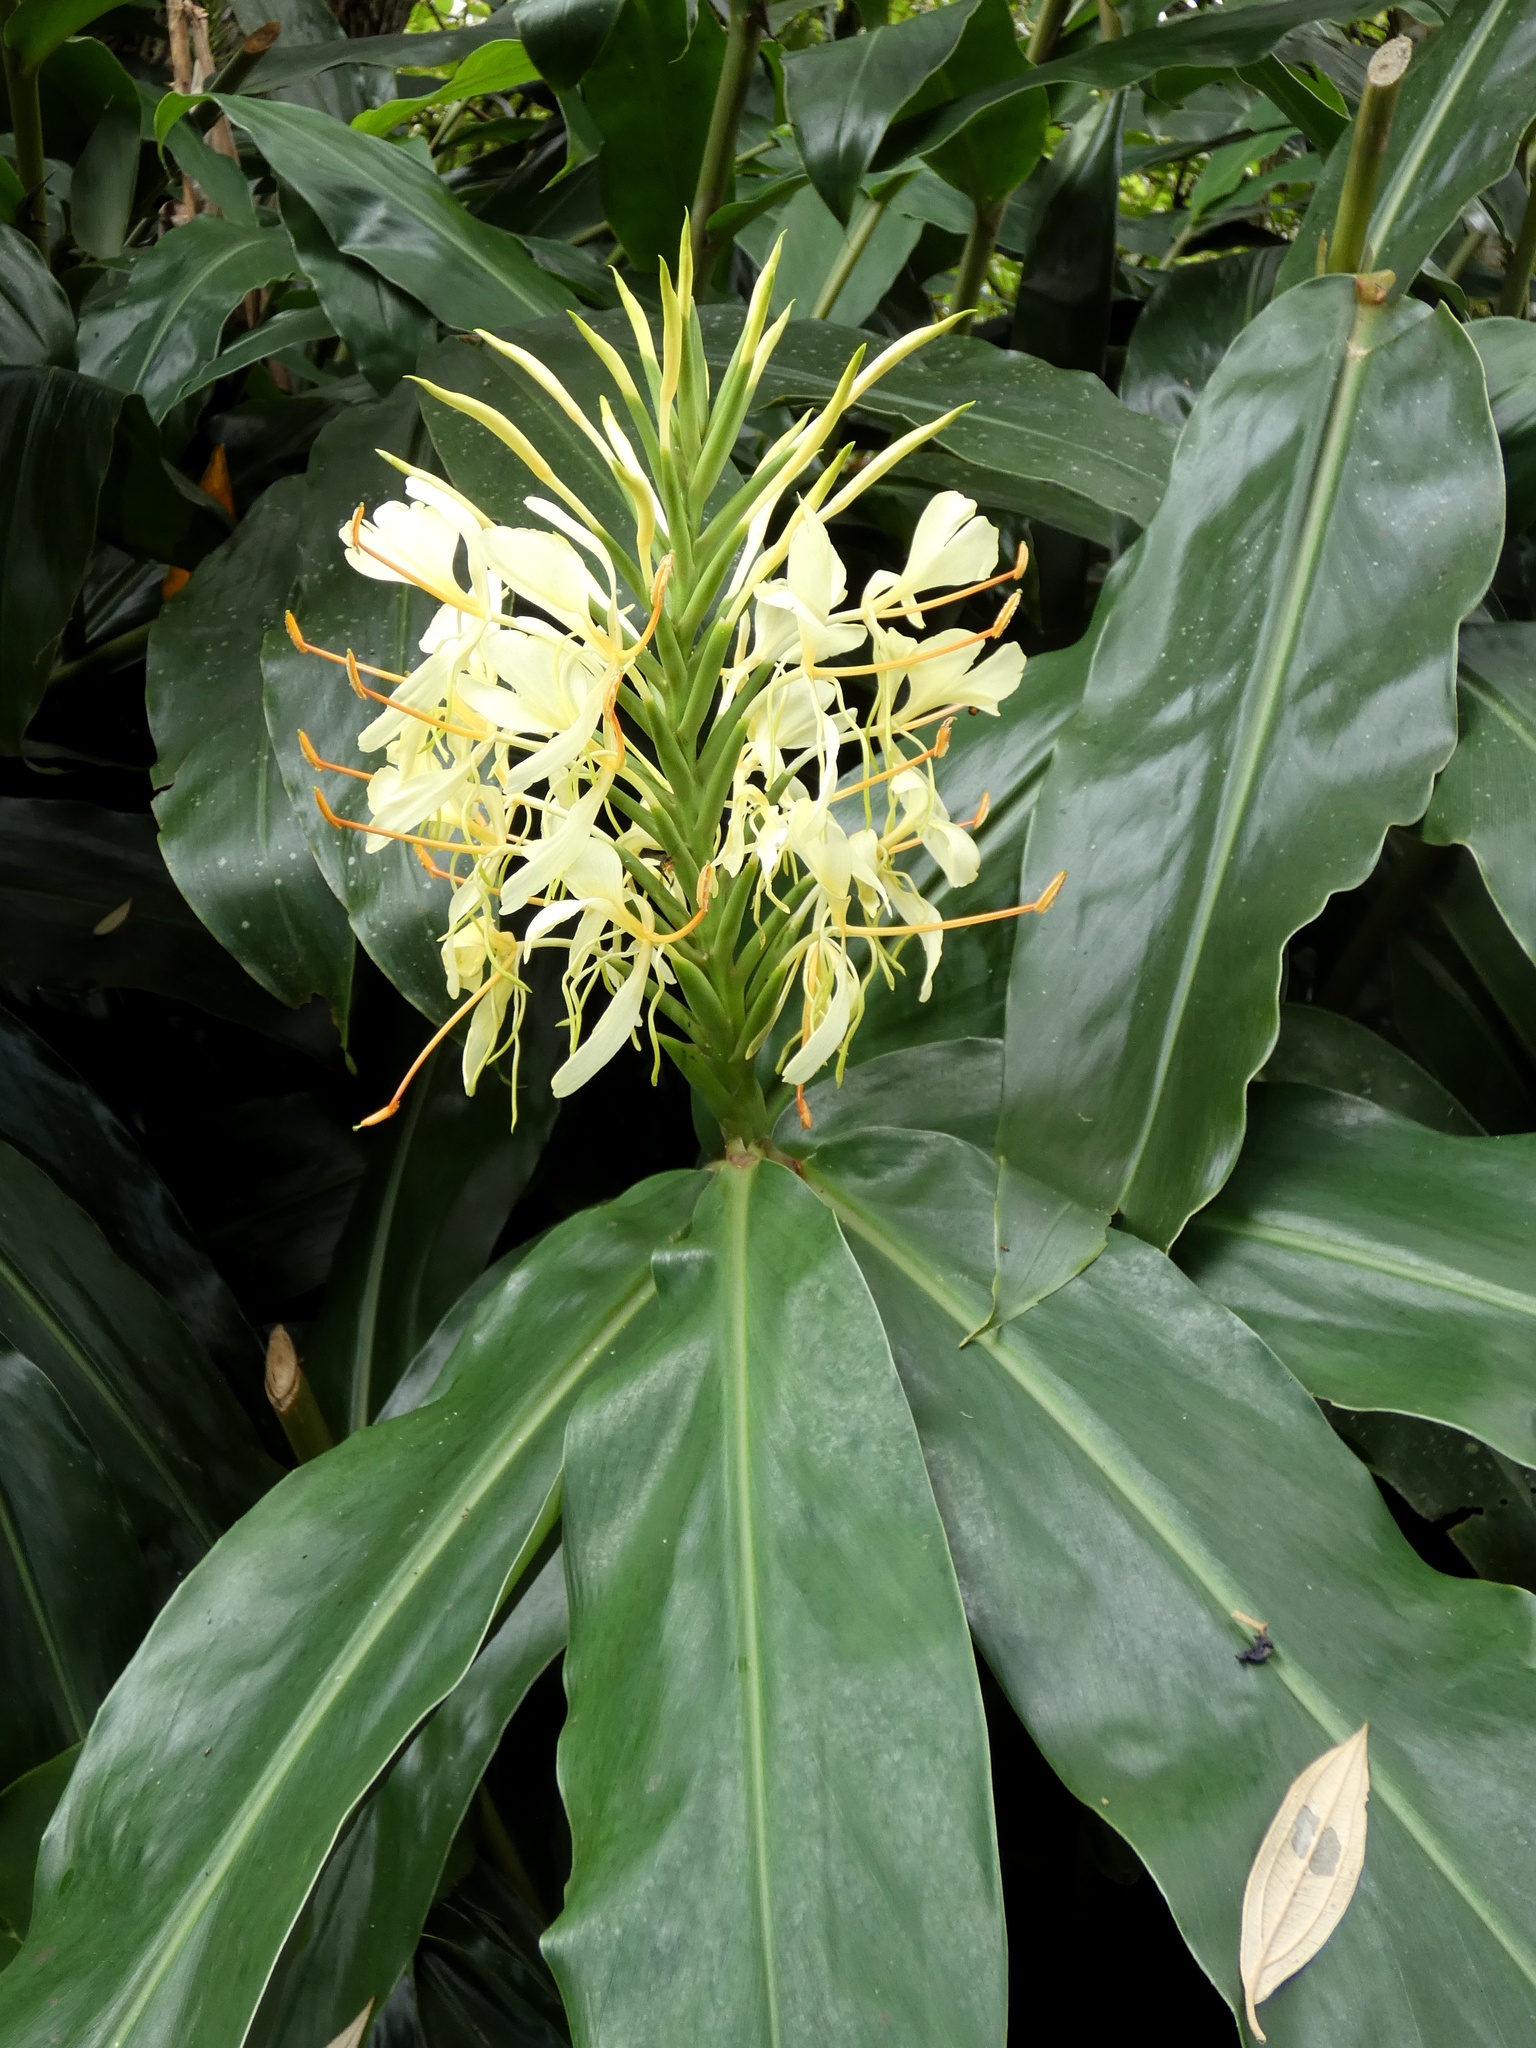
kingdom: Plantae
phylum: Tracheophyta
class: Liliopsida
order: Zingiberales
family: Zingiberaceae
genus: Hedychium
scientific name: Hedychium gardnerianum
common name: Himalayan ginger
